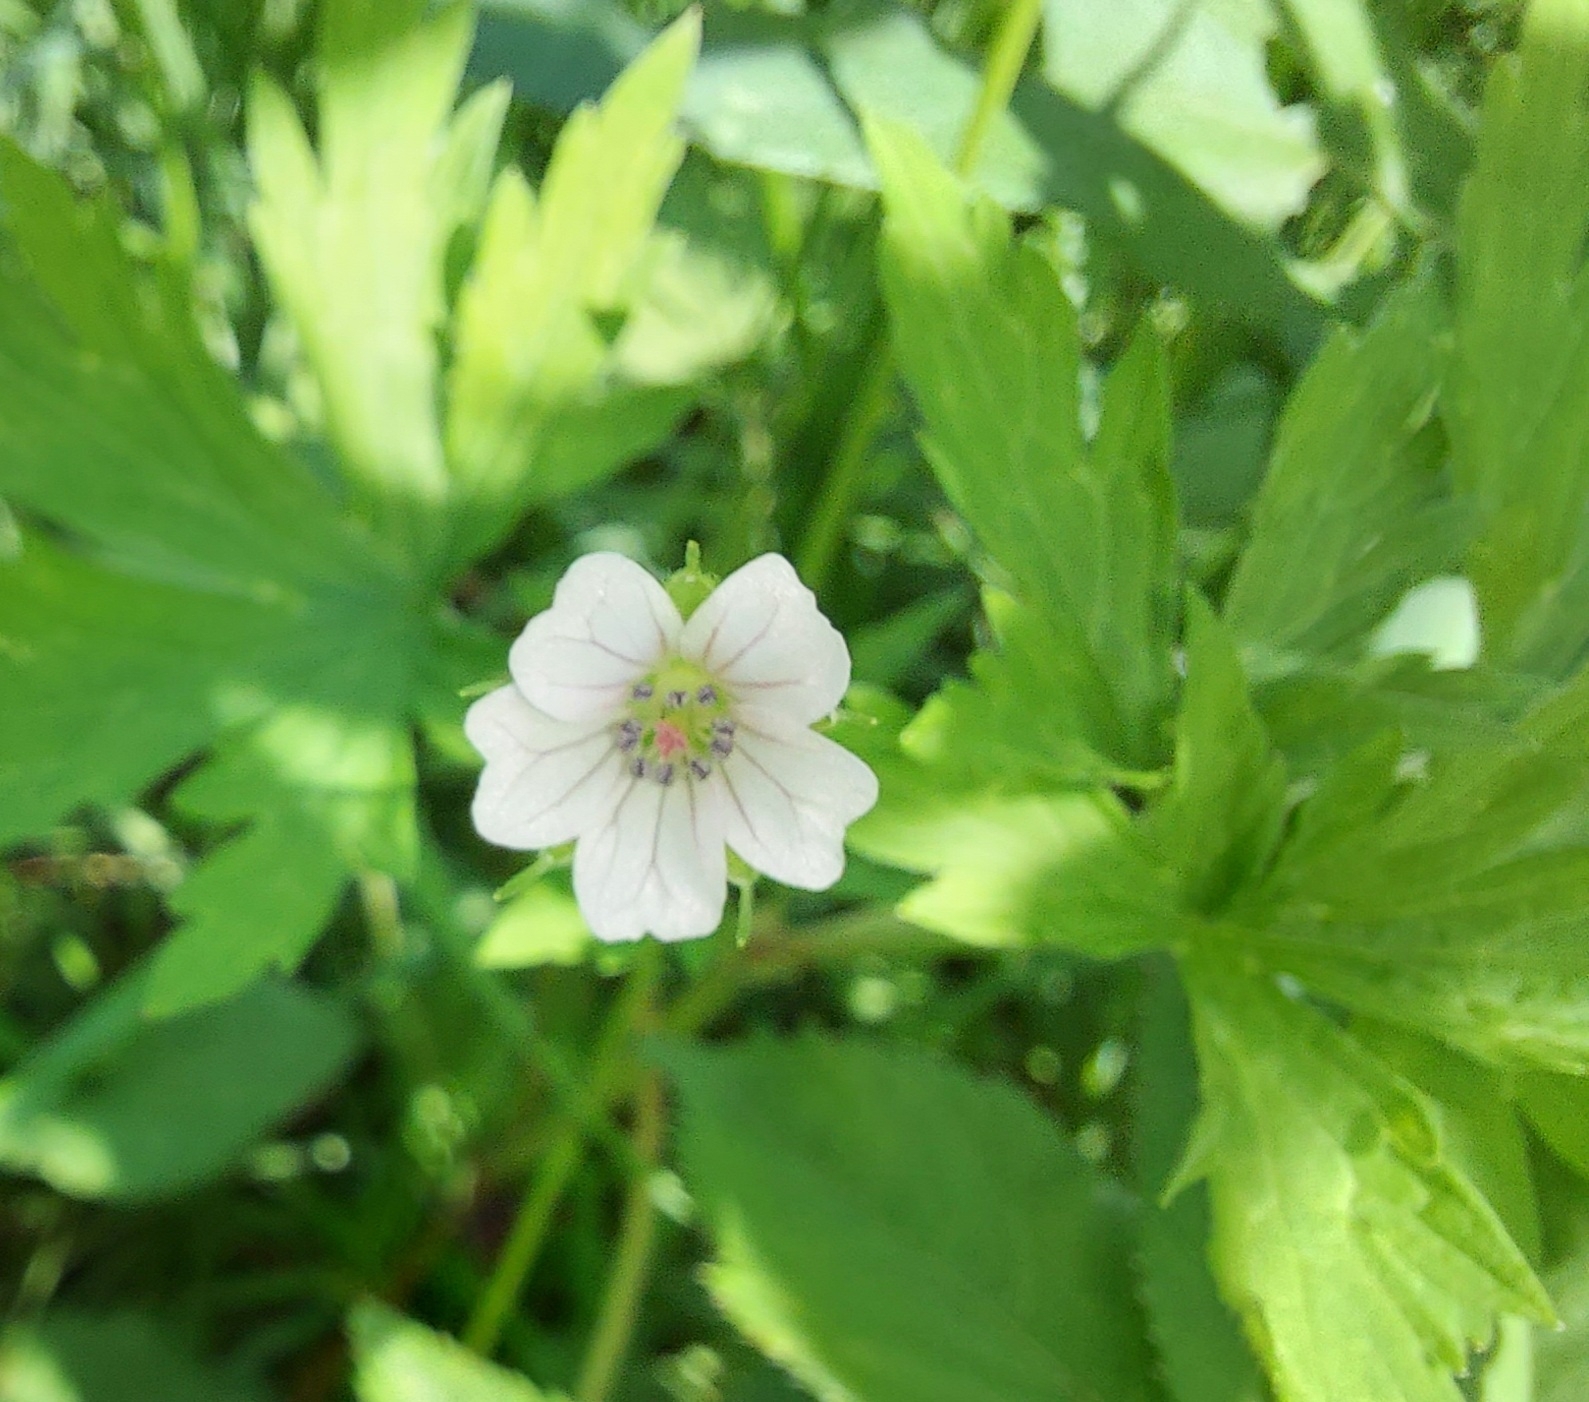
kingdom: Plantae
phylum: Tracheophyta
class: Magnoliopsida
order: Geraniales
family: Geraniaceae
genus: Geranium
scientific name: Geranium sibiricum
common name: Siberian crane's-bill
